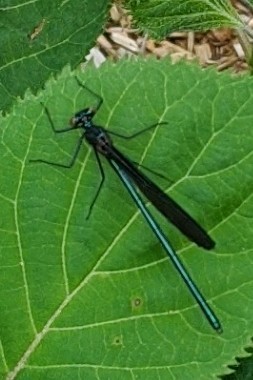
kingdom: Animalia
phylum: Arthropoda
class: Insecta
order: Odonata
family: Calopterygidae
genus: Calopteryx
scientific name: Calopteryx maculata
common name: Ebony jewelwing
